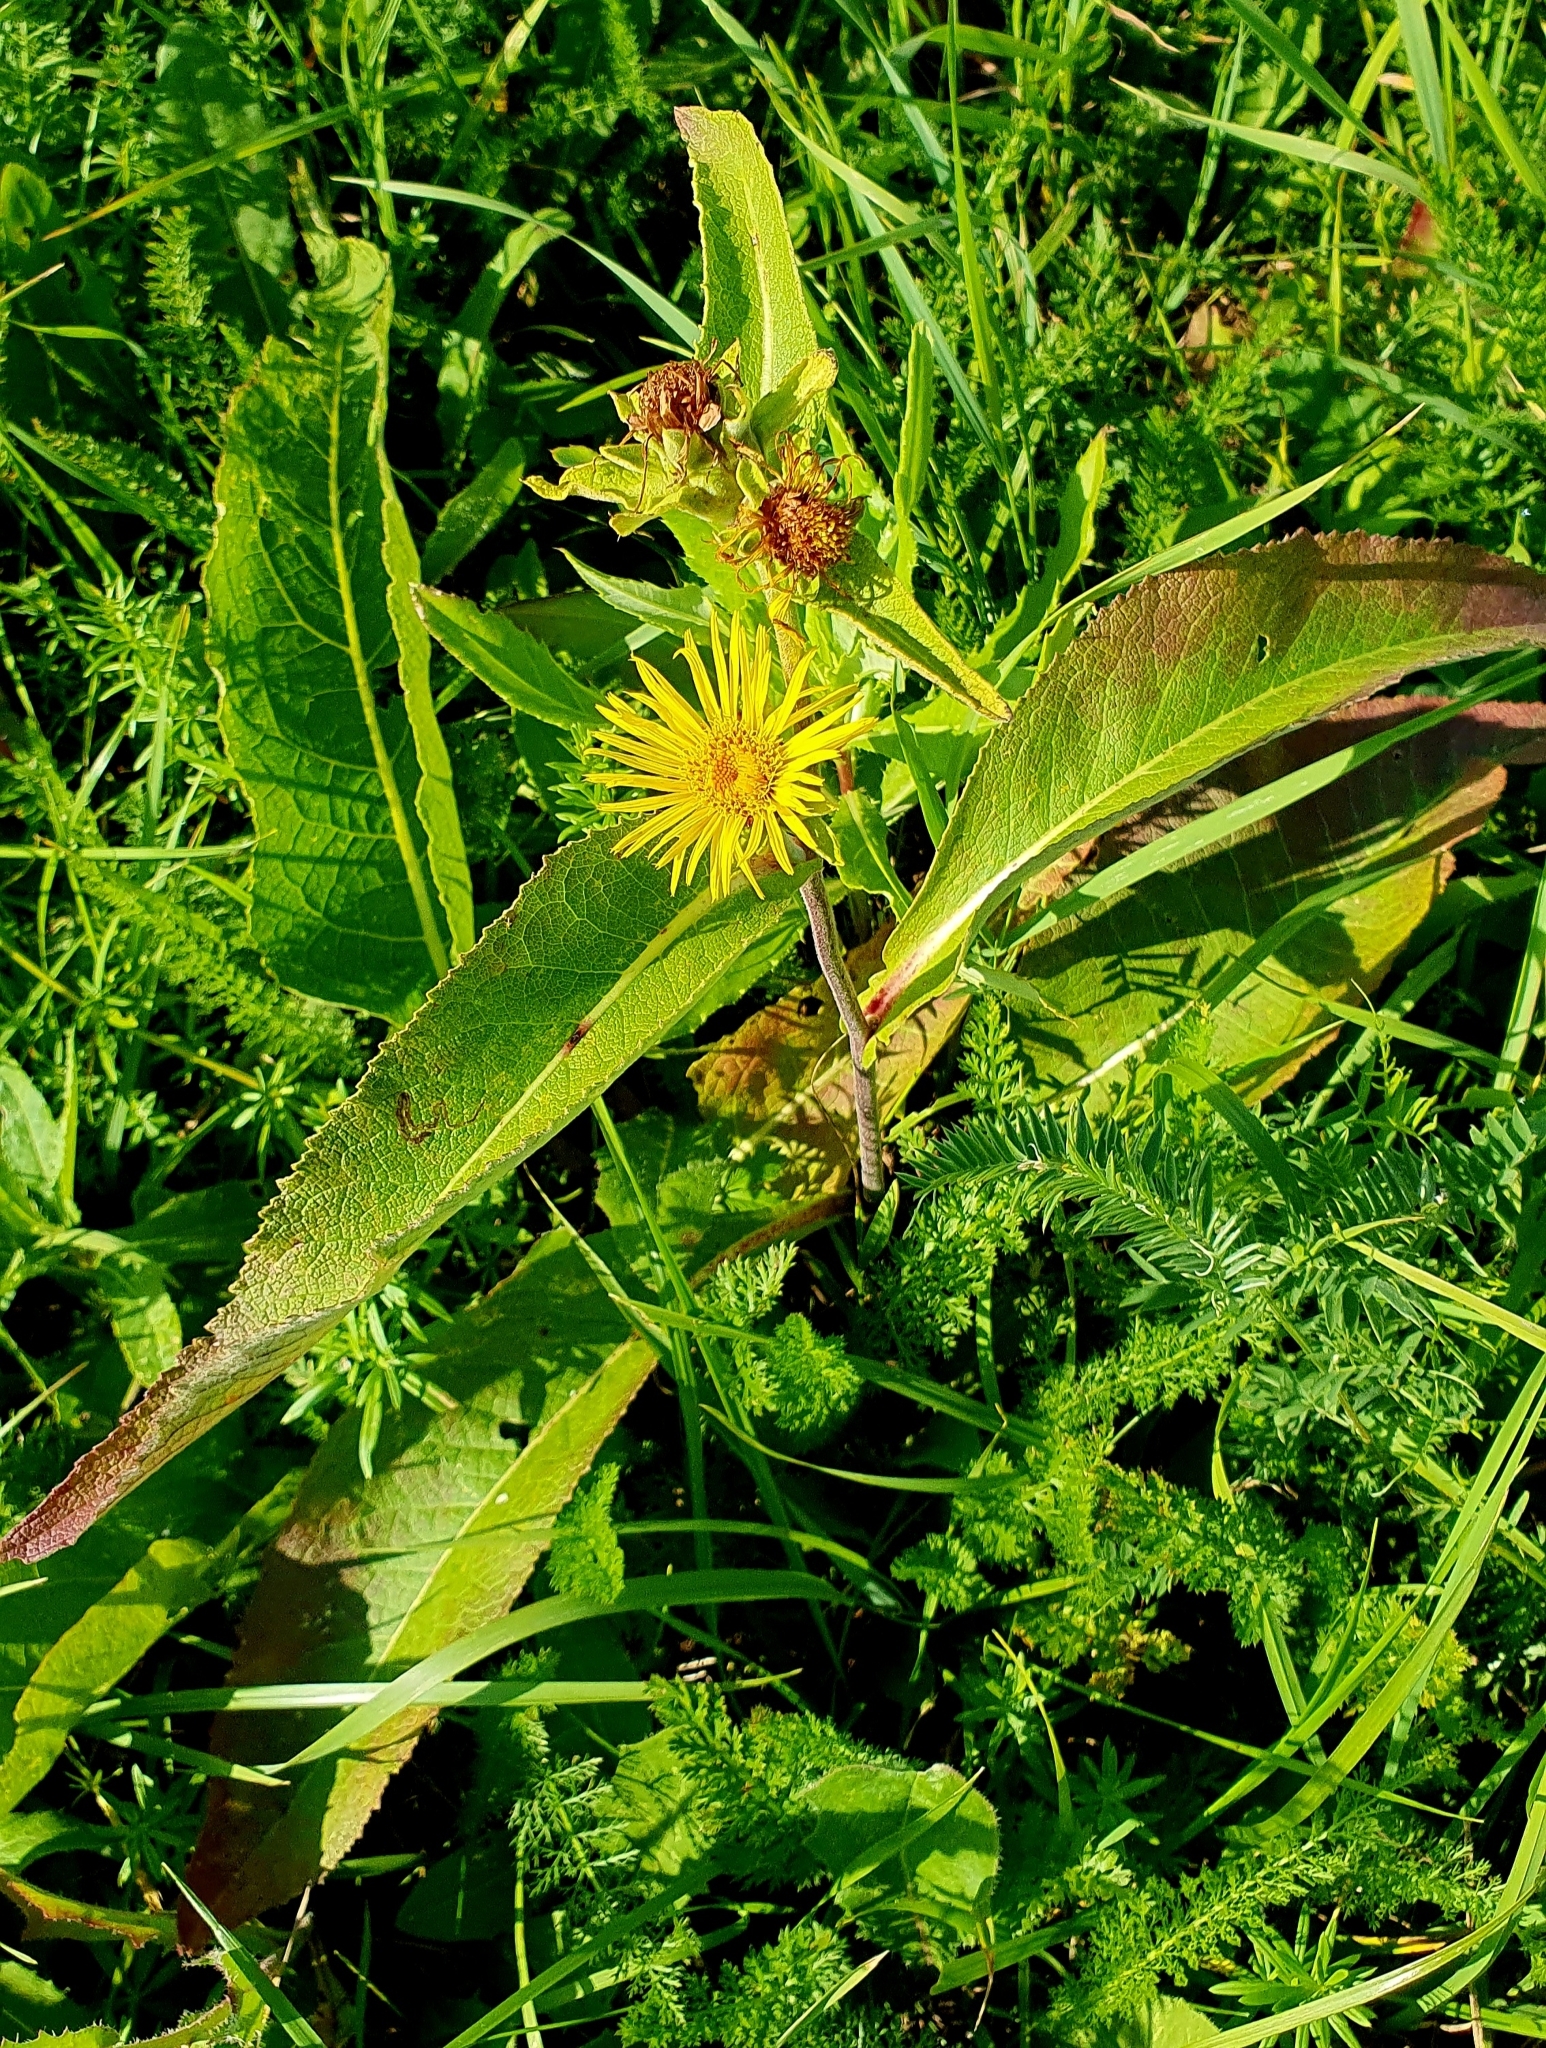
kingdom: Plantae
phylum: Tracheophyta
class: Magnoliopsida
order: Asterales
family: Asteraceae
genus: Inula
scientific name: Inula helenium
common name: Elecampane
